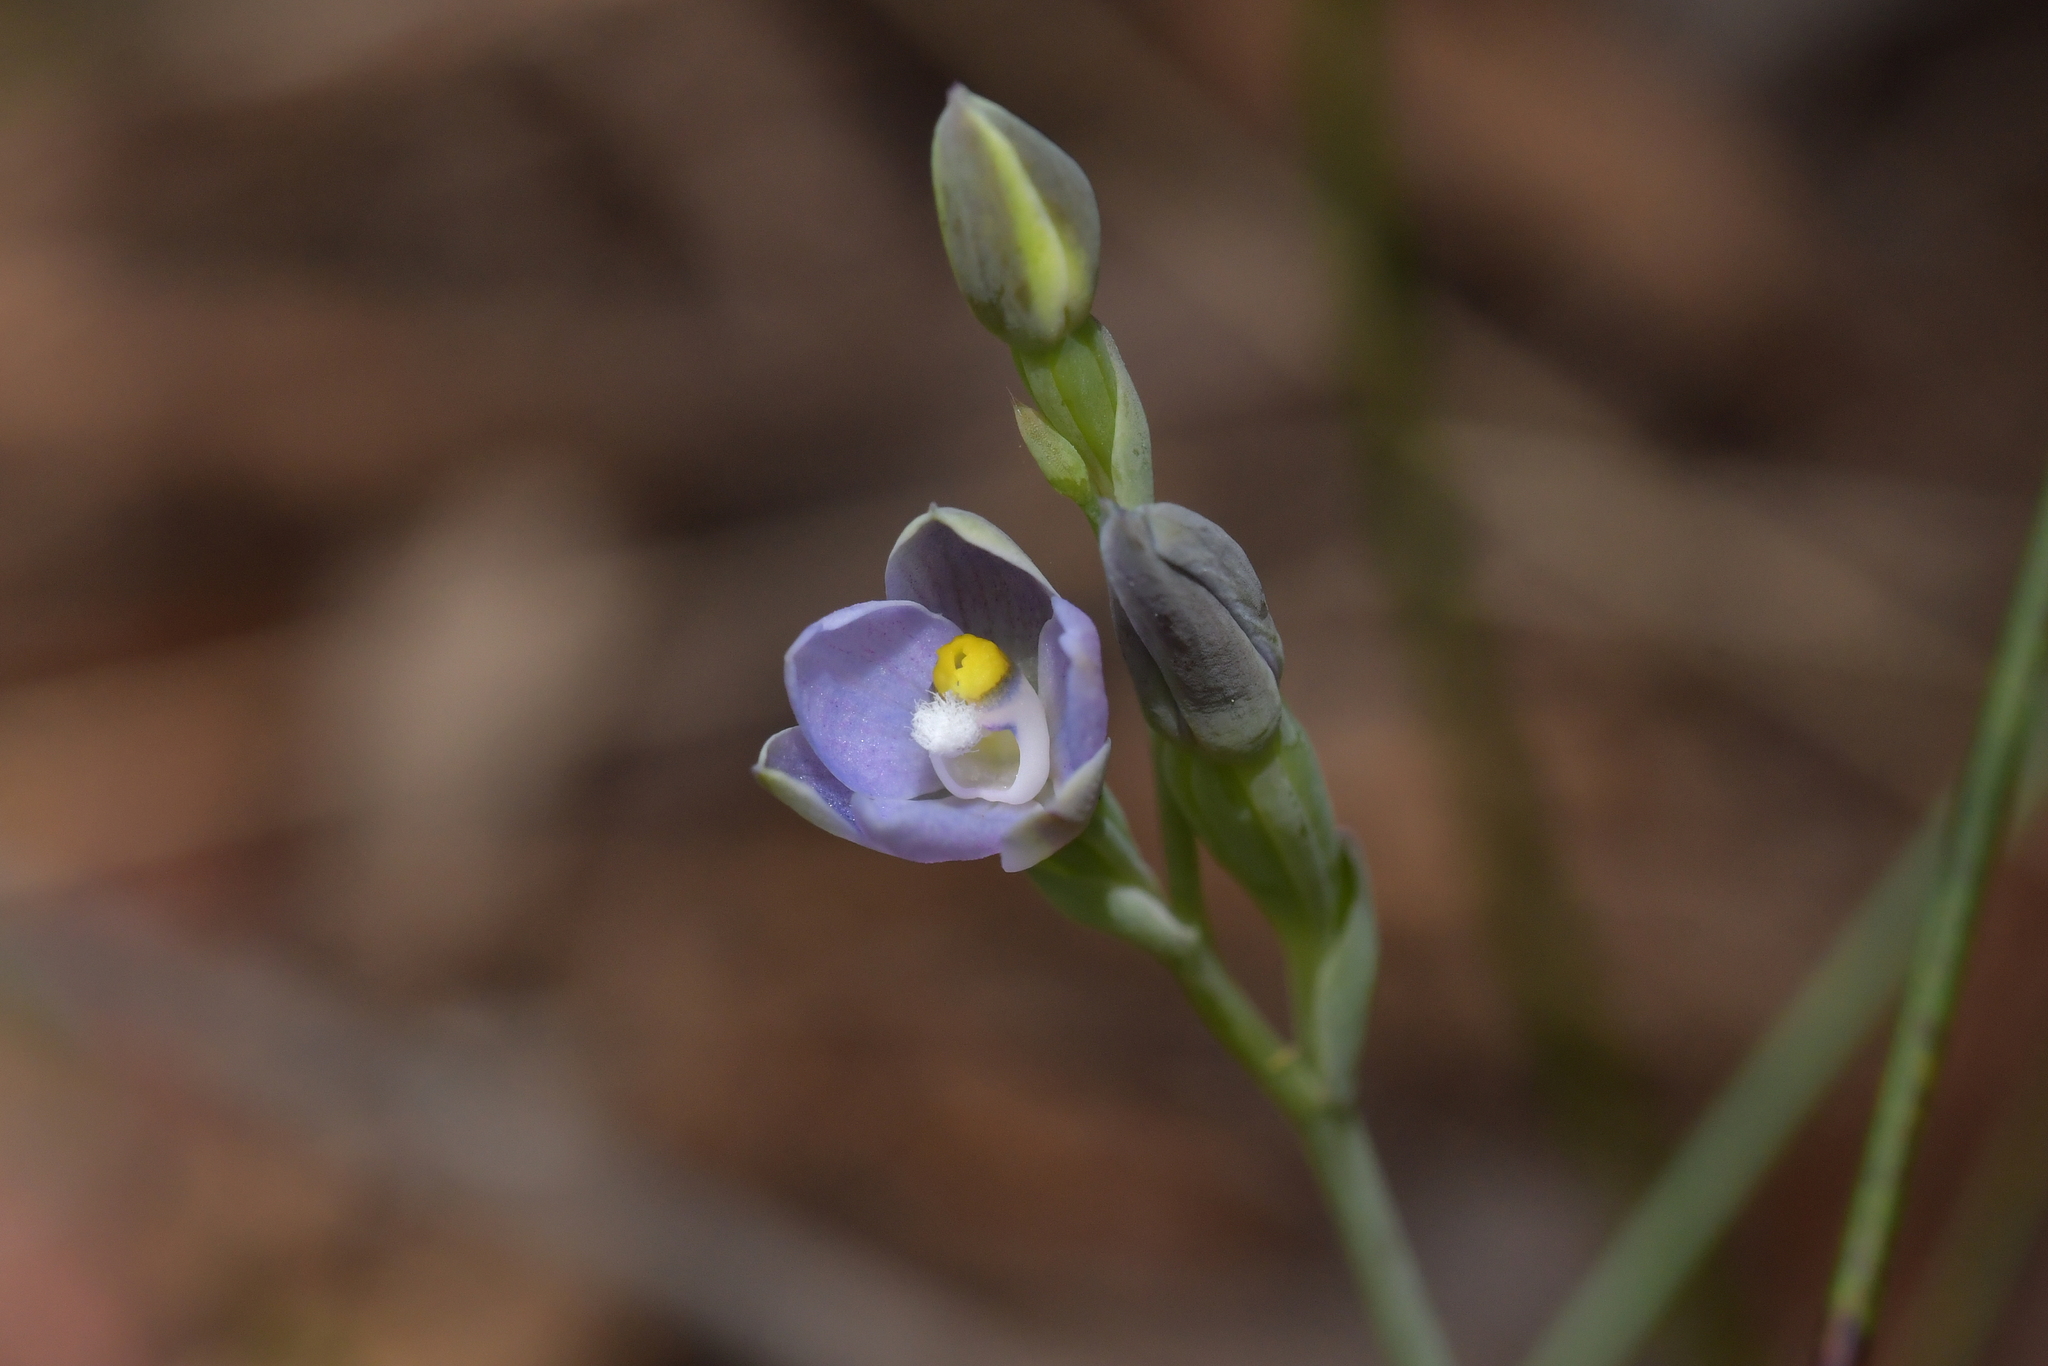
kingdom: Plantae
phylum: Tracheophyta
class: Liliopsida
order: Asparagales
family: Orchidaceae
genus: Thelymitra
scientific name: Thelymitra tholiformis
